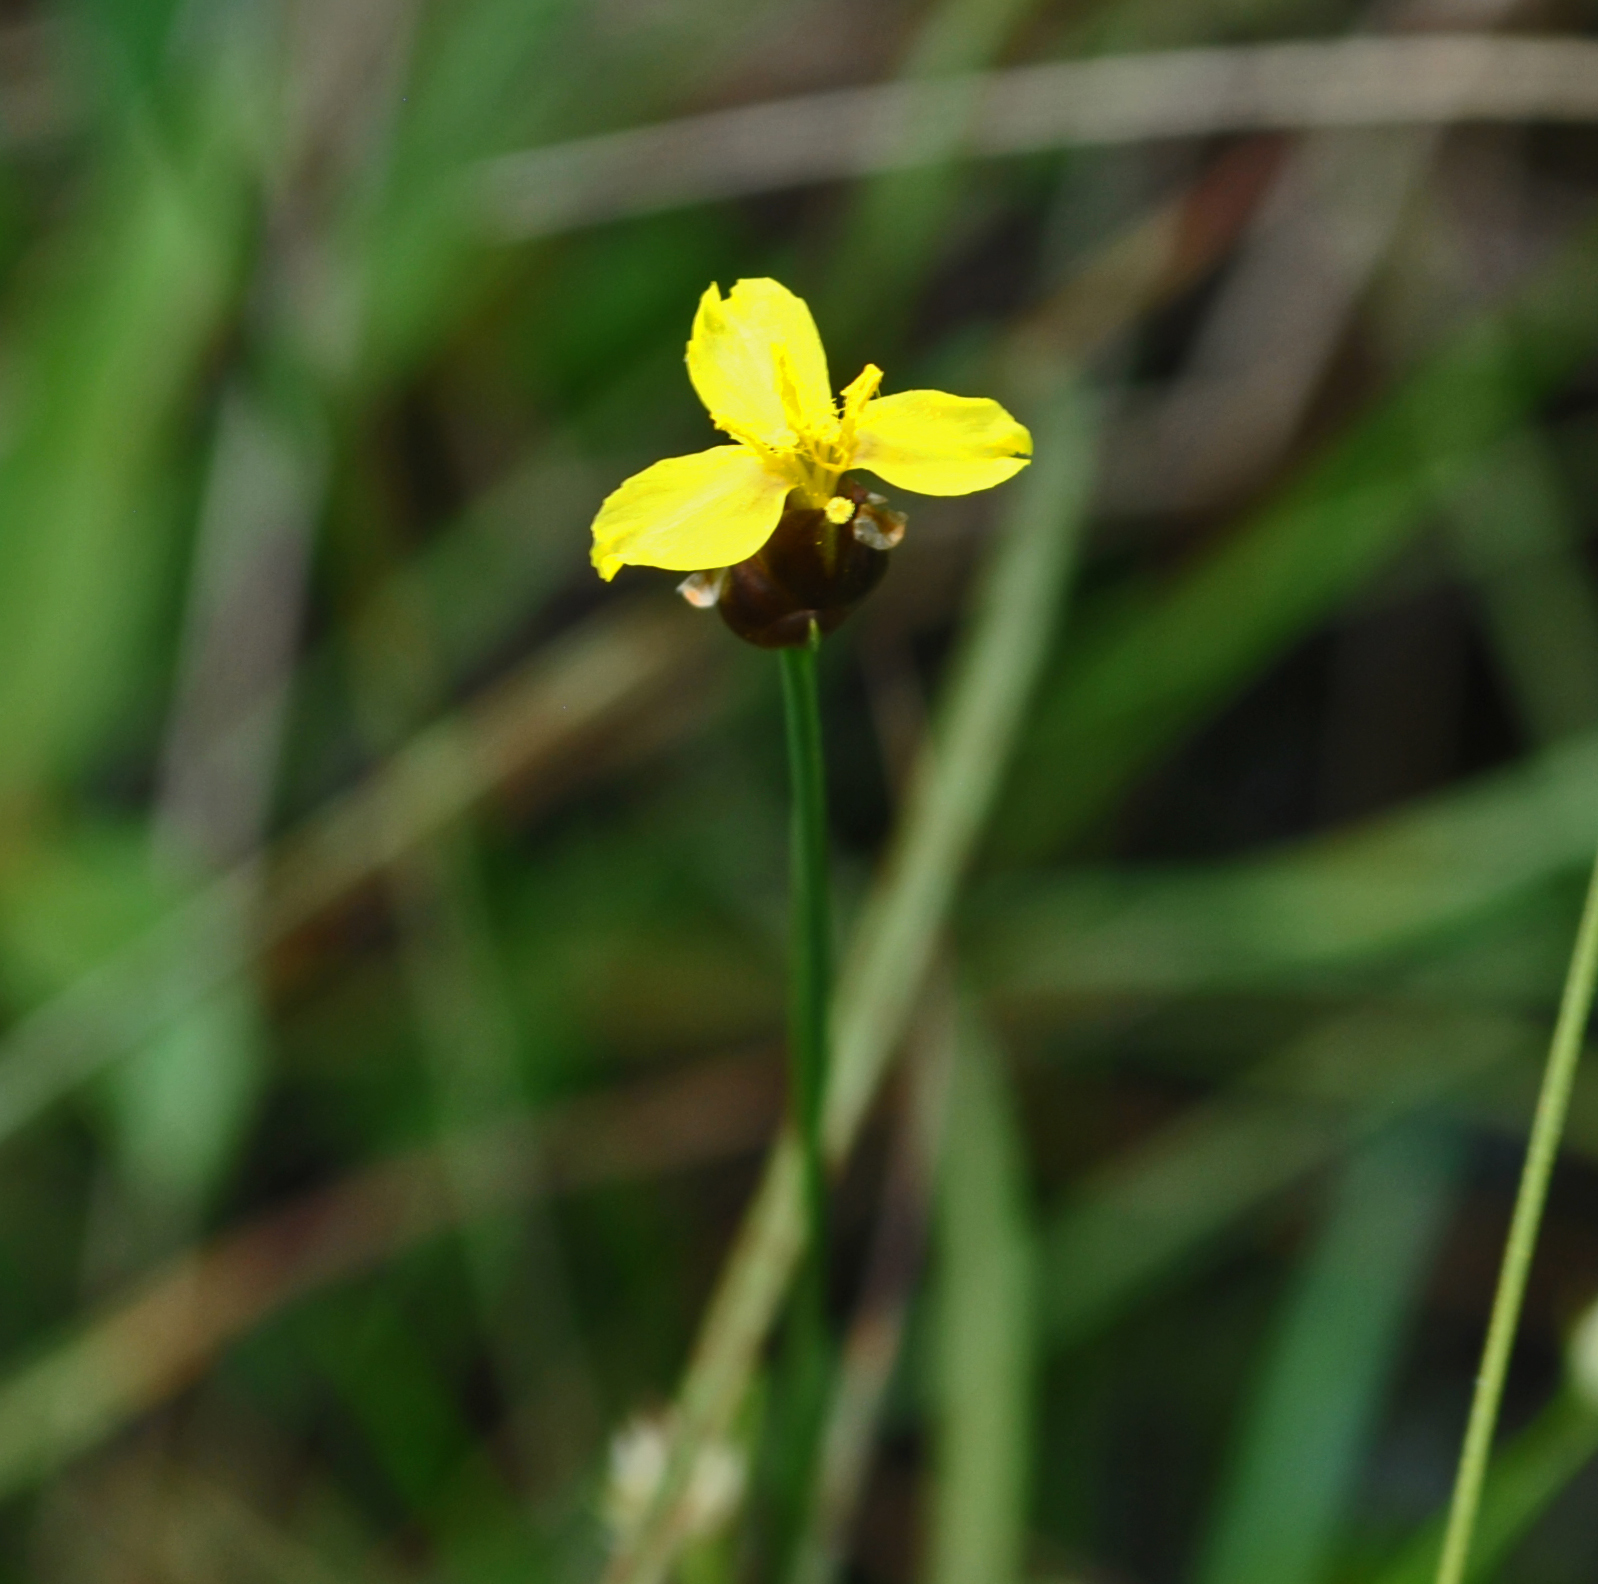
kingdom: Plantae
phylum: Tracheophyta
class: Liliopsida
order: Poales
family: Xyridaceae
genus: Xyris
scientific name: Xyris montana
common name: Northern yellow-eyed-grass
